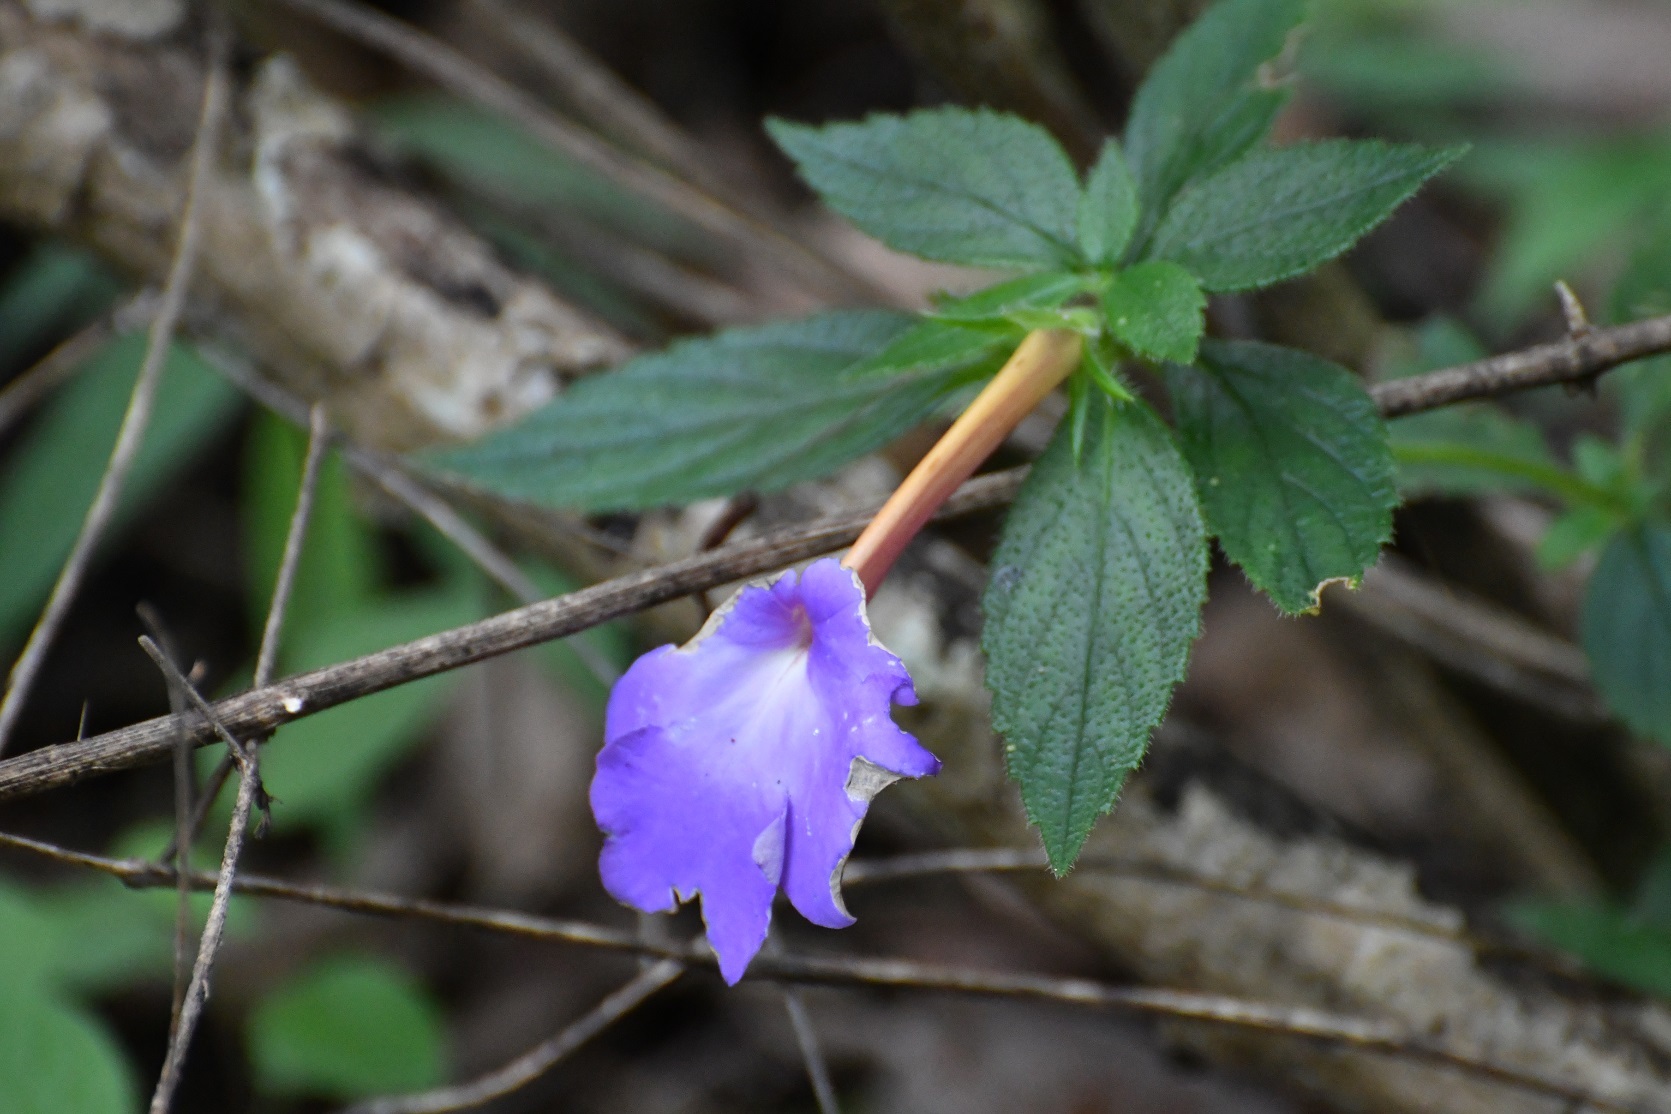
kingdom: Plantae
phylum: Tracheophyta
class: Magnoliopsida
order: Lamiales
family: Gesneriaceae
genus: Achimenes
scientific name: Achimenes longiflora
